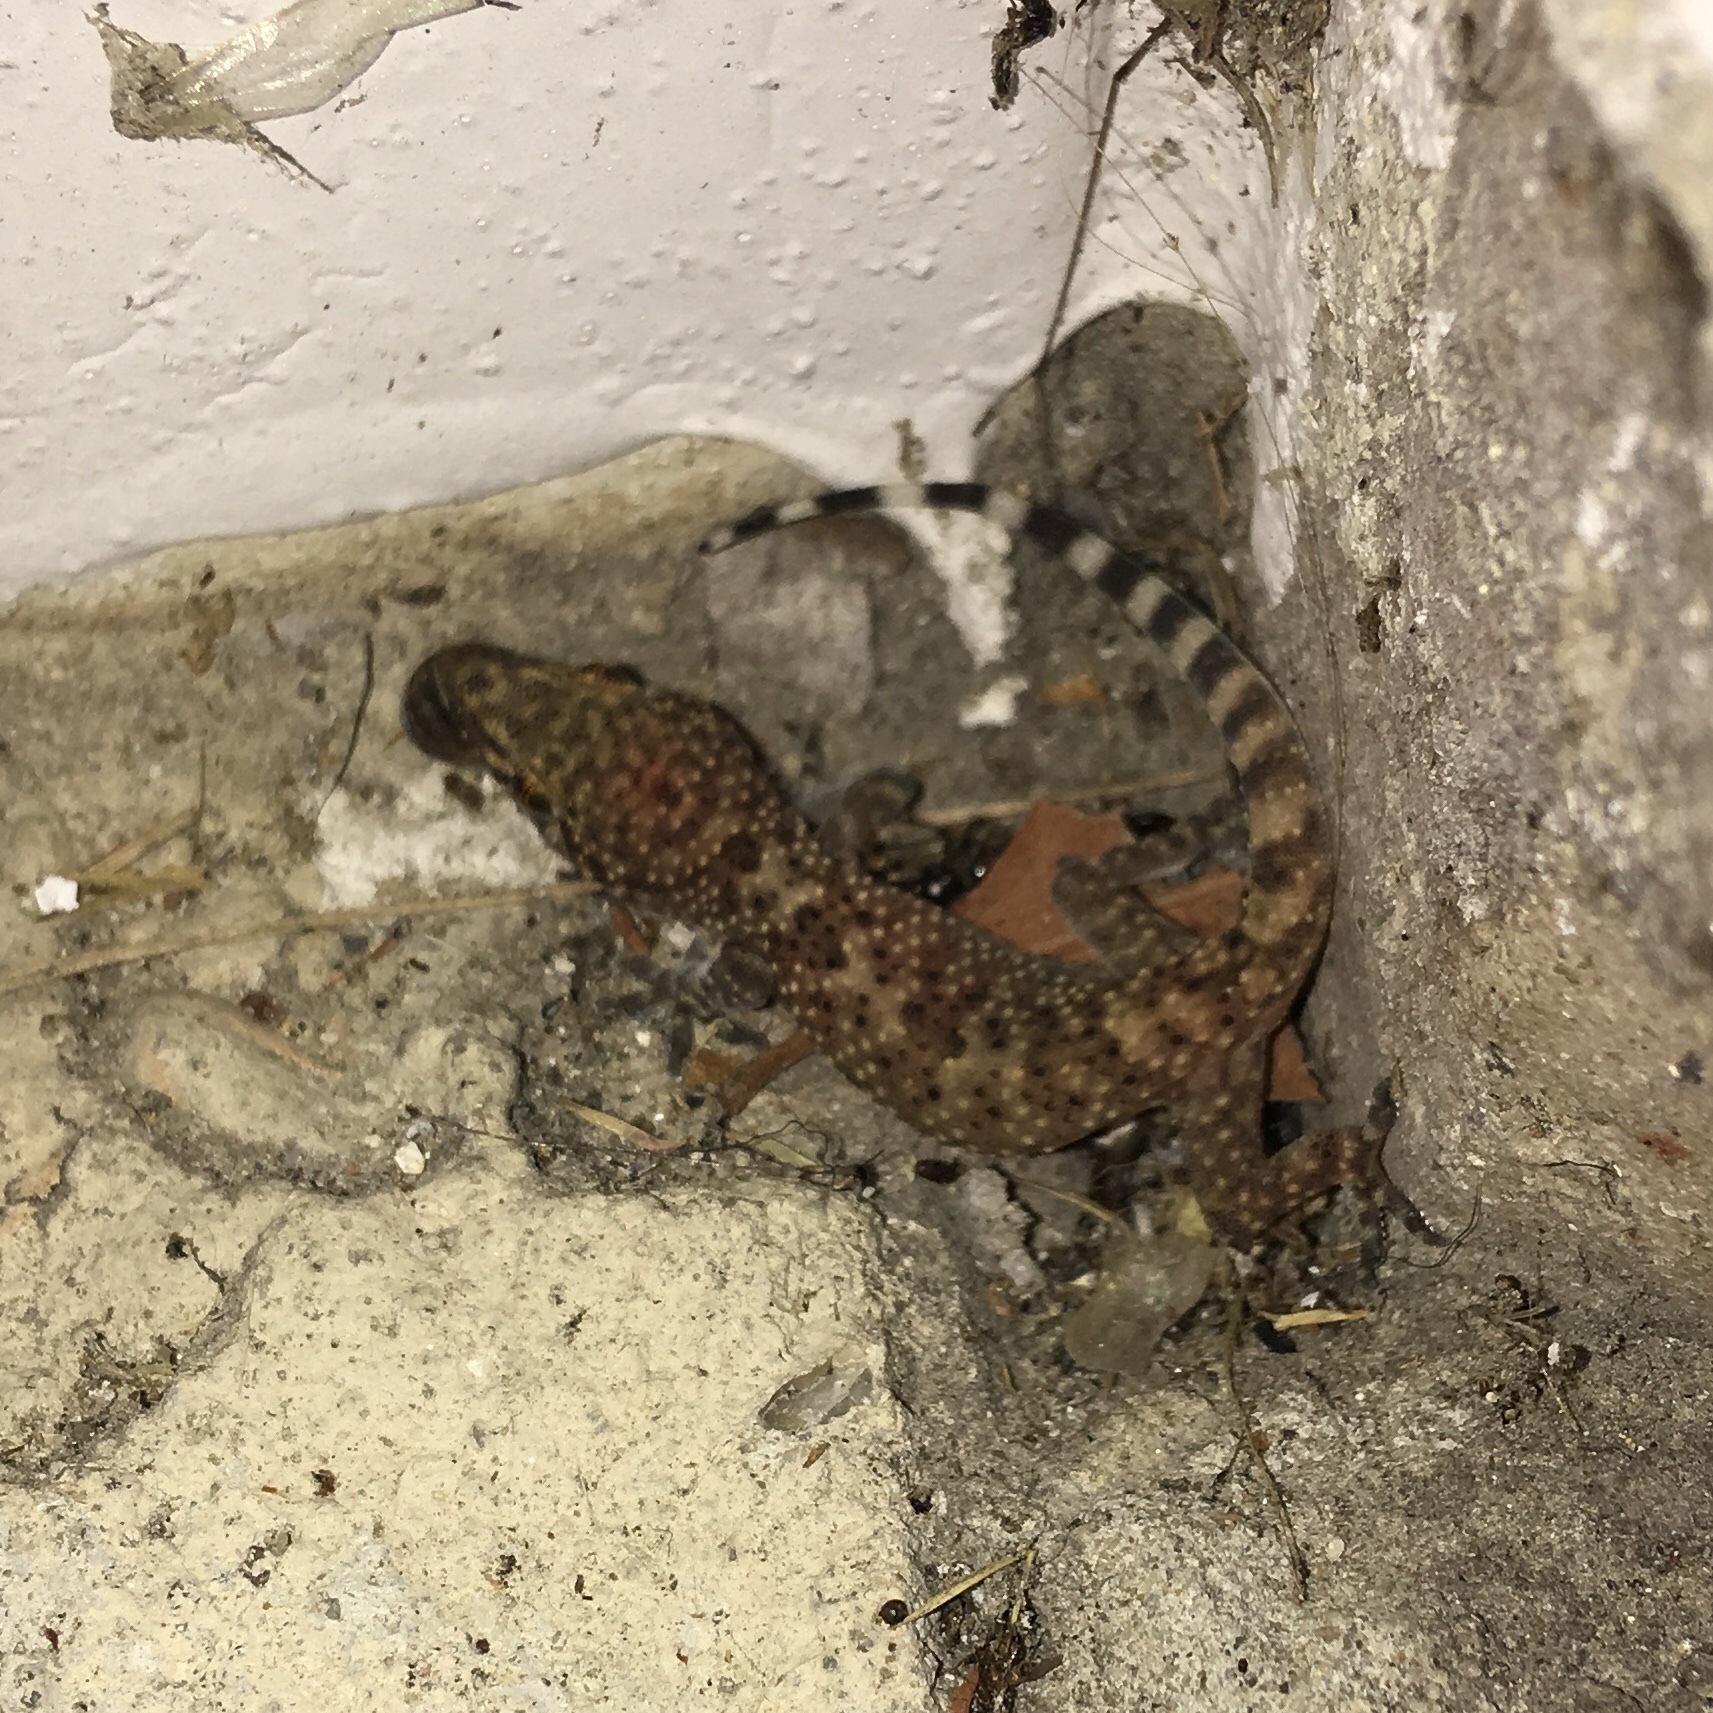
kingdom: Animalia
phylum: Chordata
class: Squamata
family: Gekkonidae
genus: Hemidactylus
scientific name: Hemidactylus turcicus
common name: Turkish gecko
